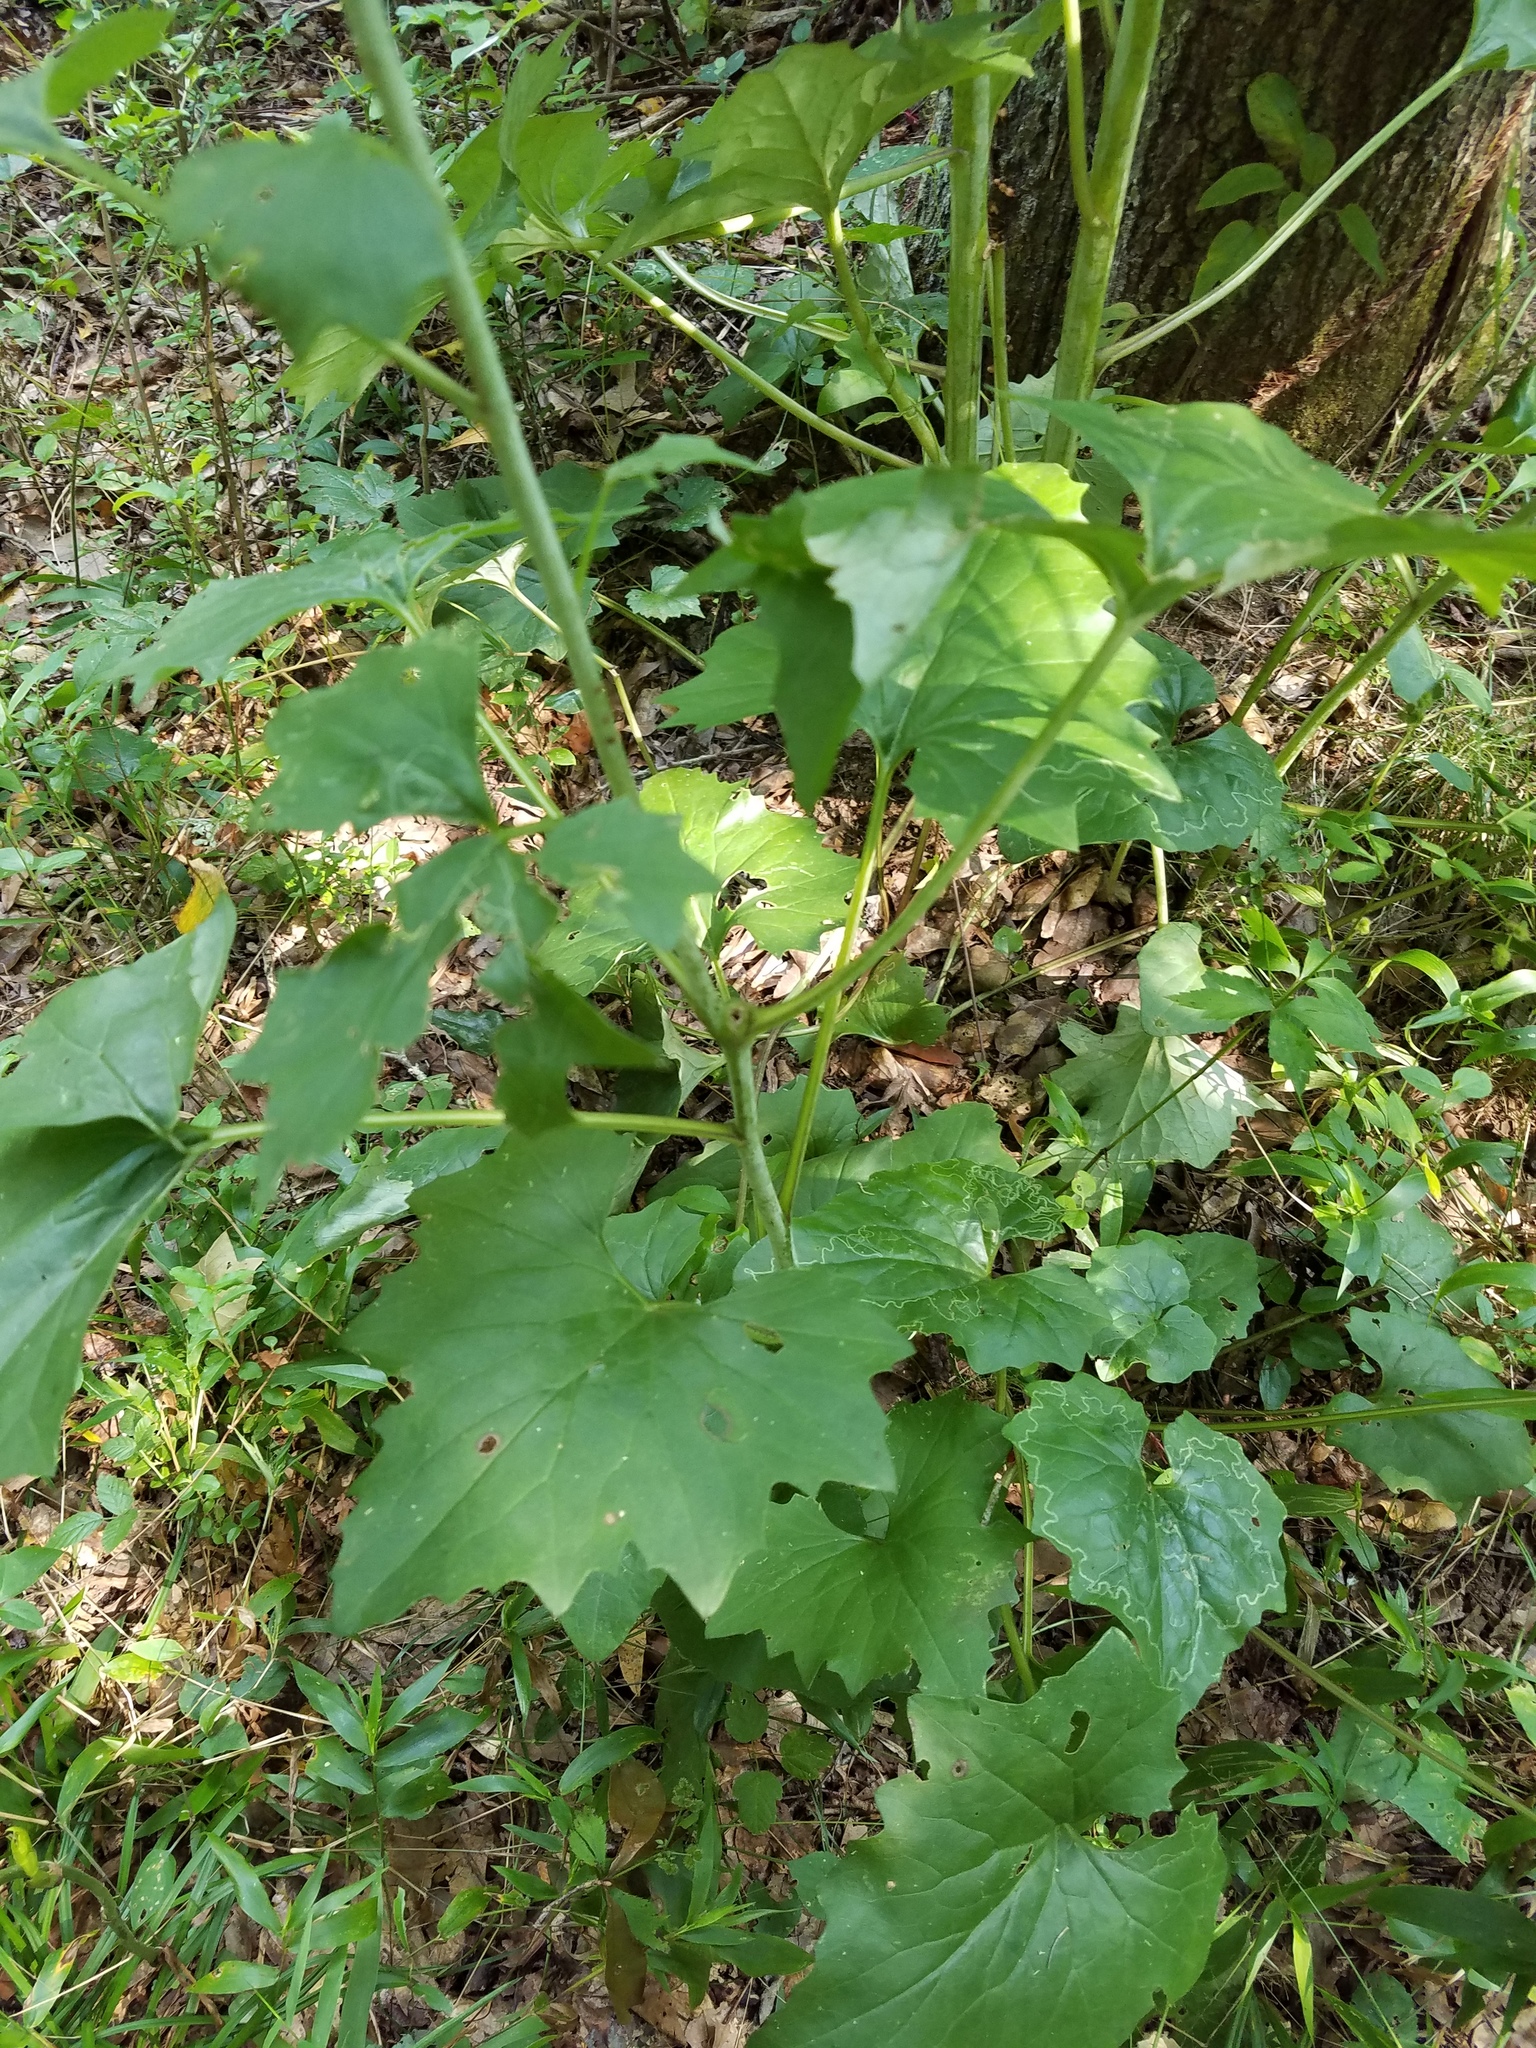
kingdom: Plantae
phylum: Tracheophyta
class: Magnoliopsida
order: Asterales
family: Asteraceae
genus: Arnoglossum
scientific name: Arnoglossum atriplicifolium
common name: Pale indian-plantain
